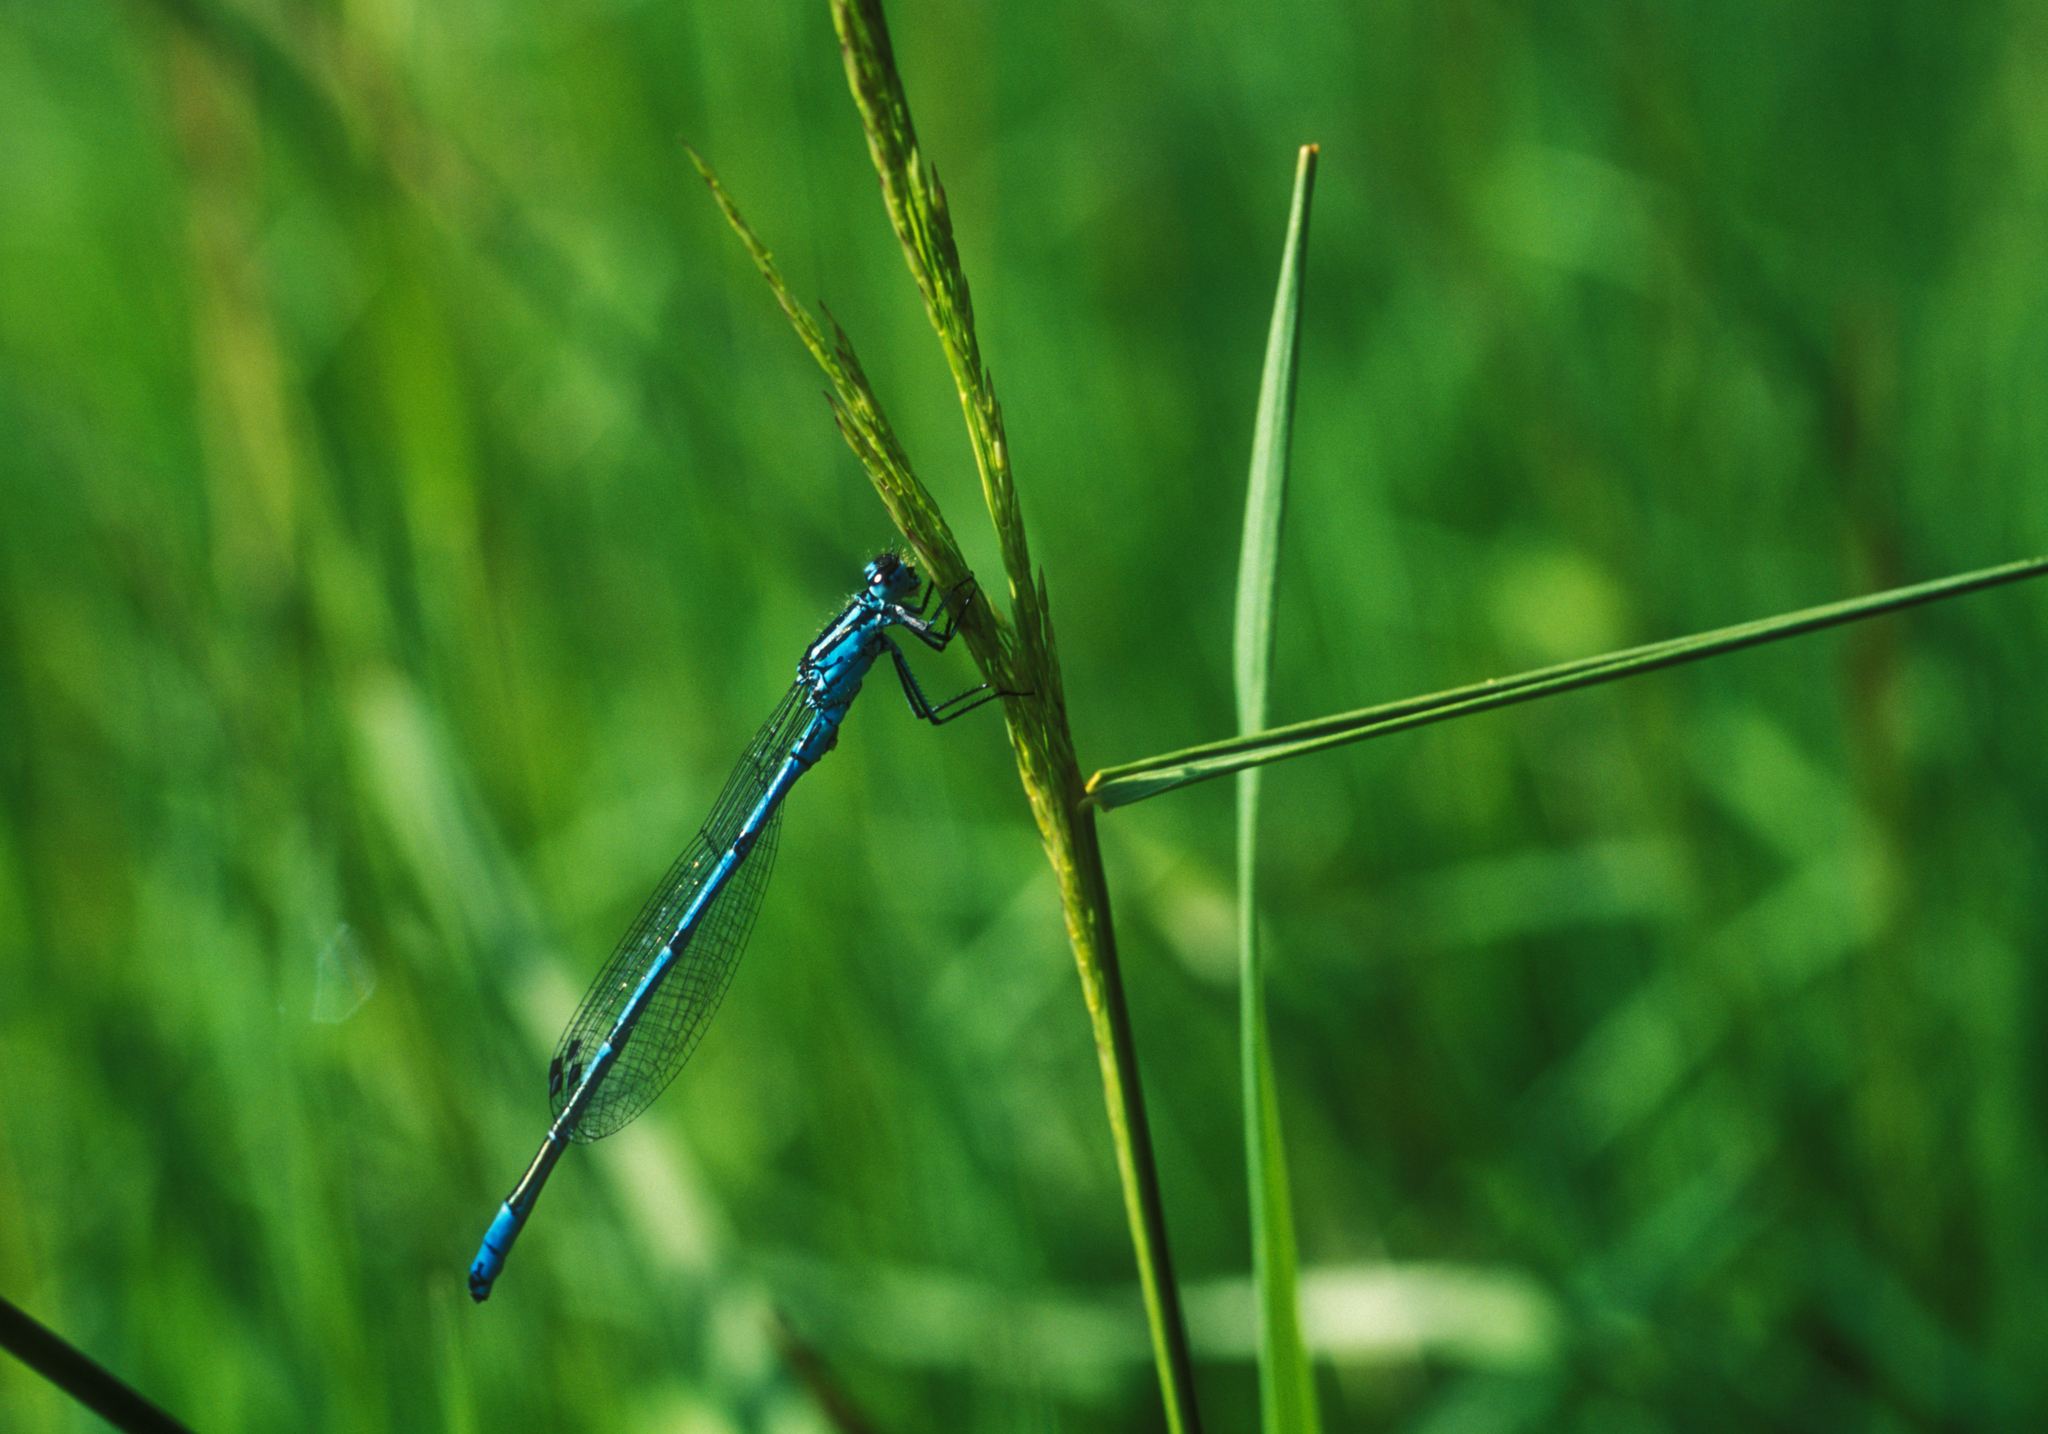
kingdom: Animalia
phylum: Arthropoda
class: Insecta
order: Odonata
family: Coenagrionidae
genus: Coenagrion
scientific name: Coenagrion puella
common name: Azure damselfly
